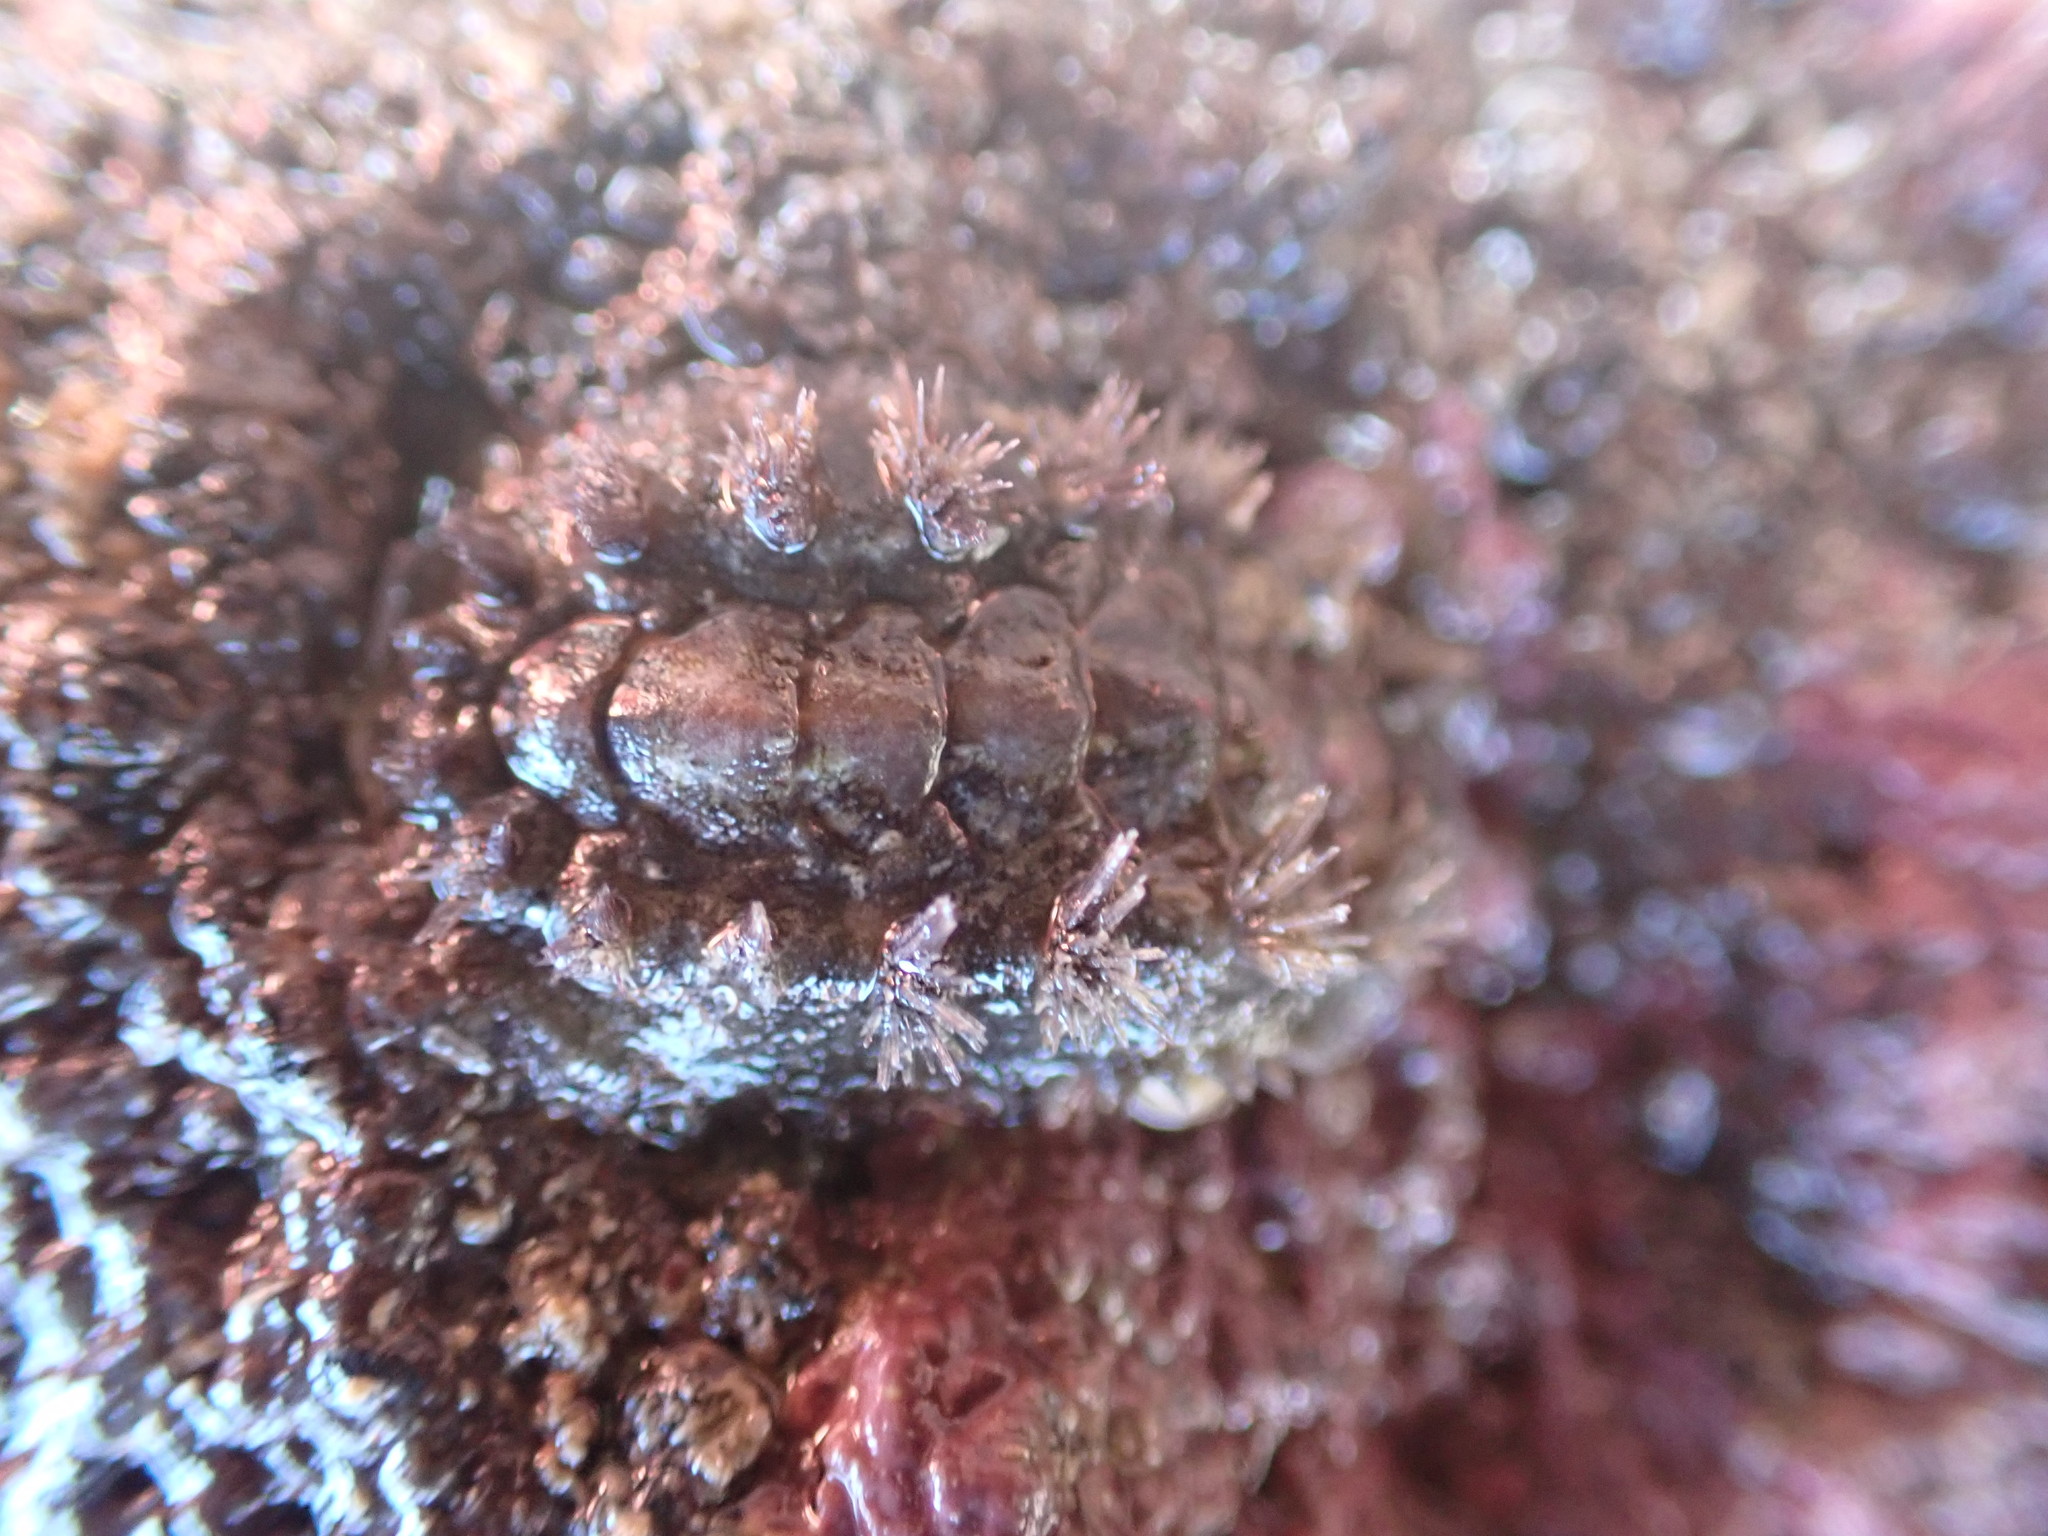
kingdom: Animalia
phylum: Mollusca
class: Polyplacophora
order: Chitonida
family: Acanthochitonidae
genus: Acanthochitona
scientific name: Acanthochitona zelandica
